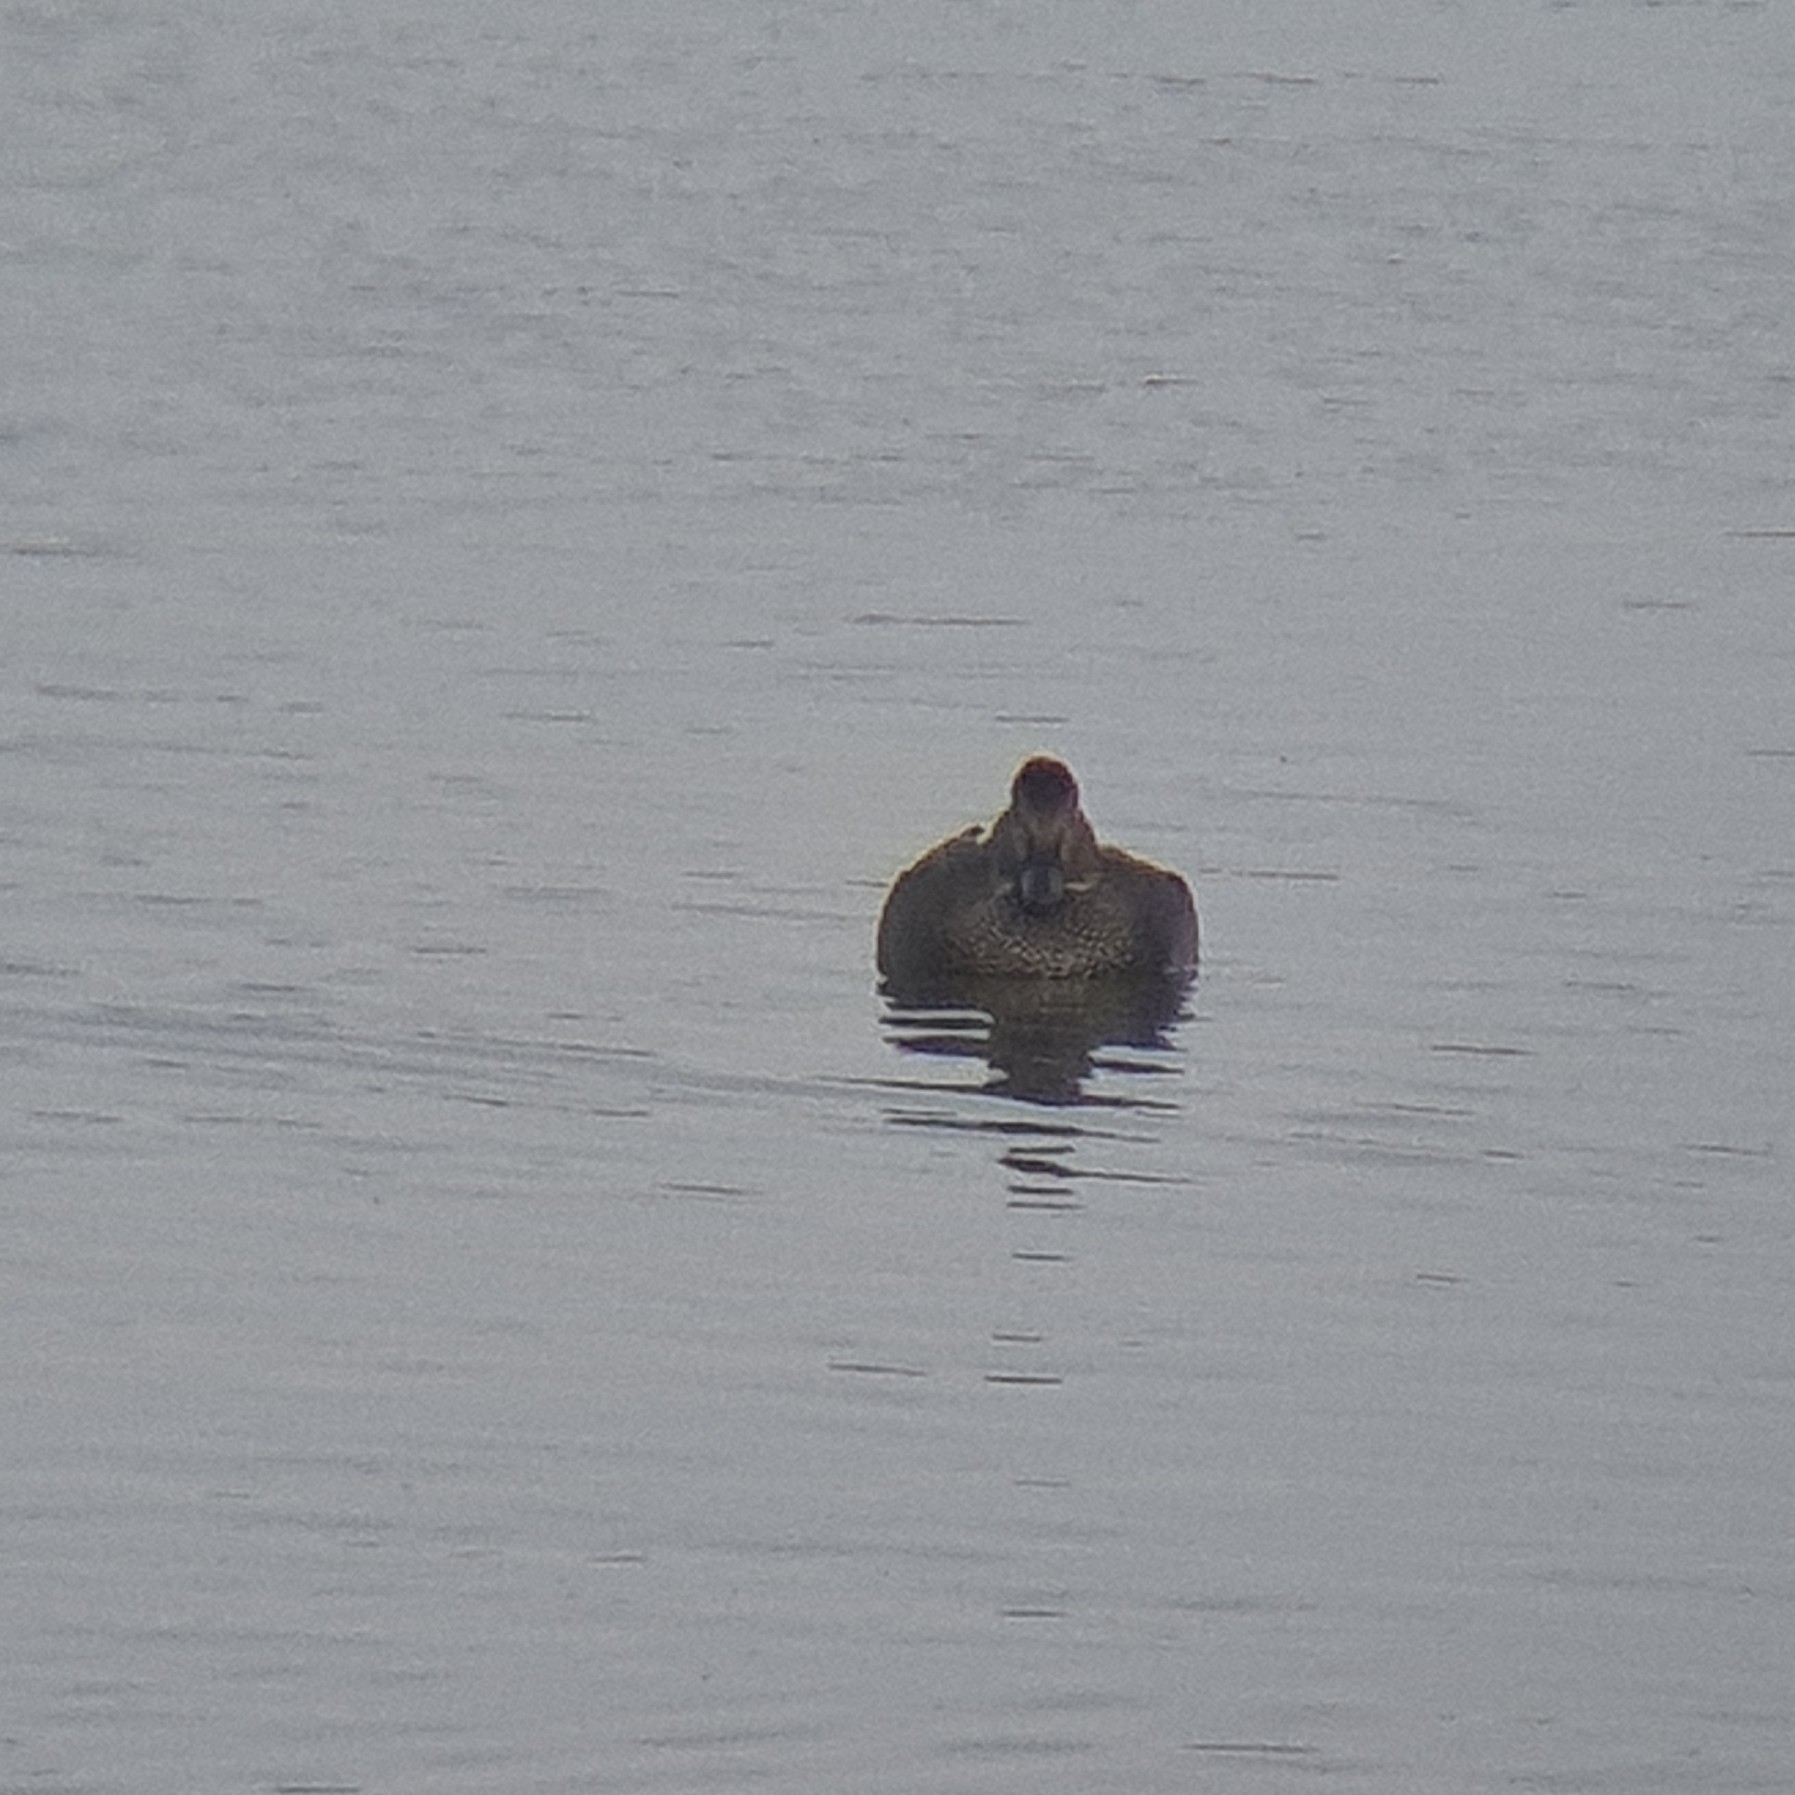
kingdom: Animalia
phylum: Chordata
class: Aves
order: Anseriformes
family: Anatidae
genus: Mareca
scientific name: Mareca strepera
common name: Gadwall
